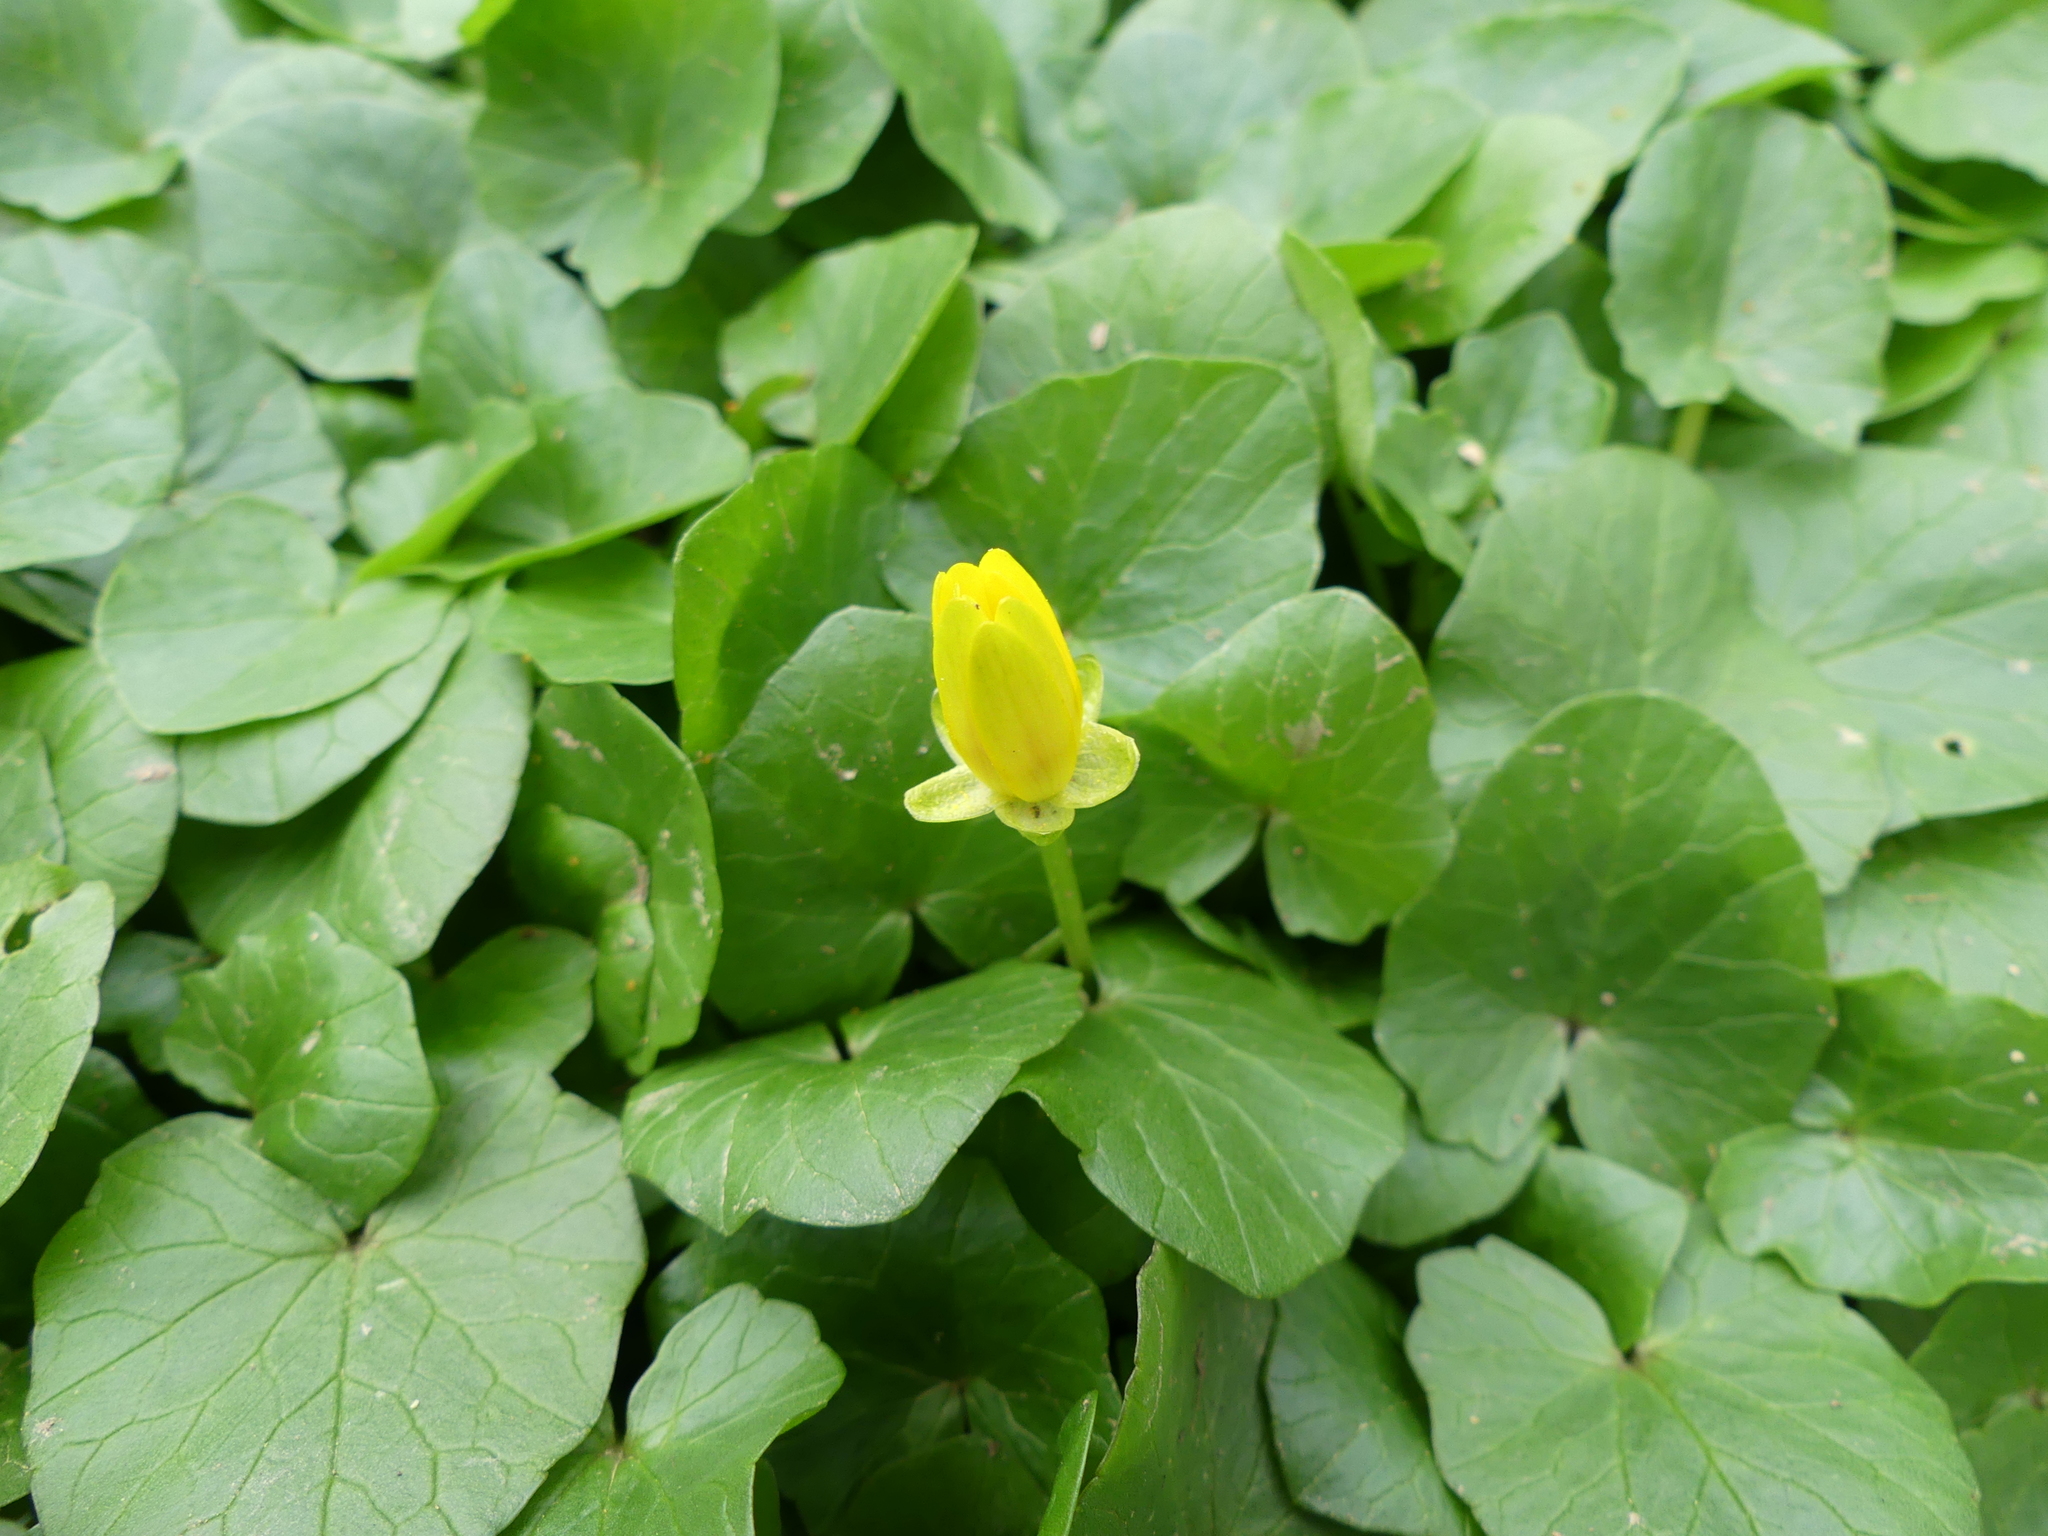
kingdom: Plantae
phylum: Tracheophyta
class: Magnoliopsida
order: Ranunculales
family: Ranunculaceae
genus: Ficaria
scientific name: Ficaria verna
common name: Lesser celandine
